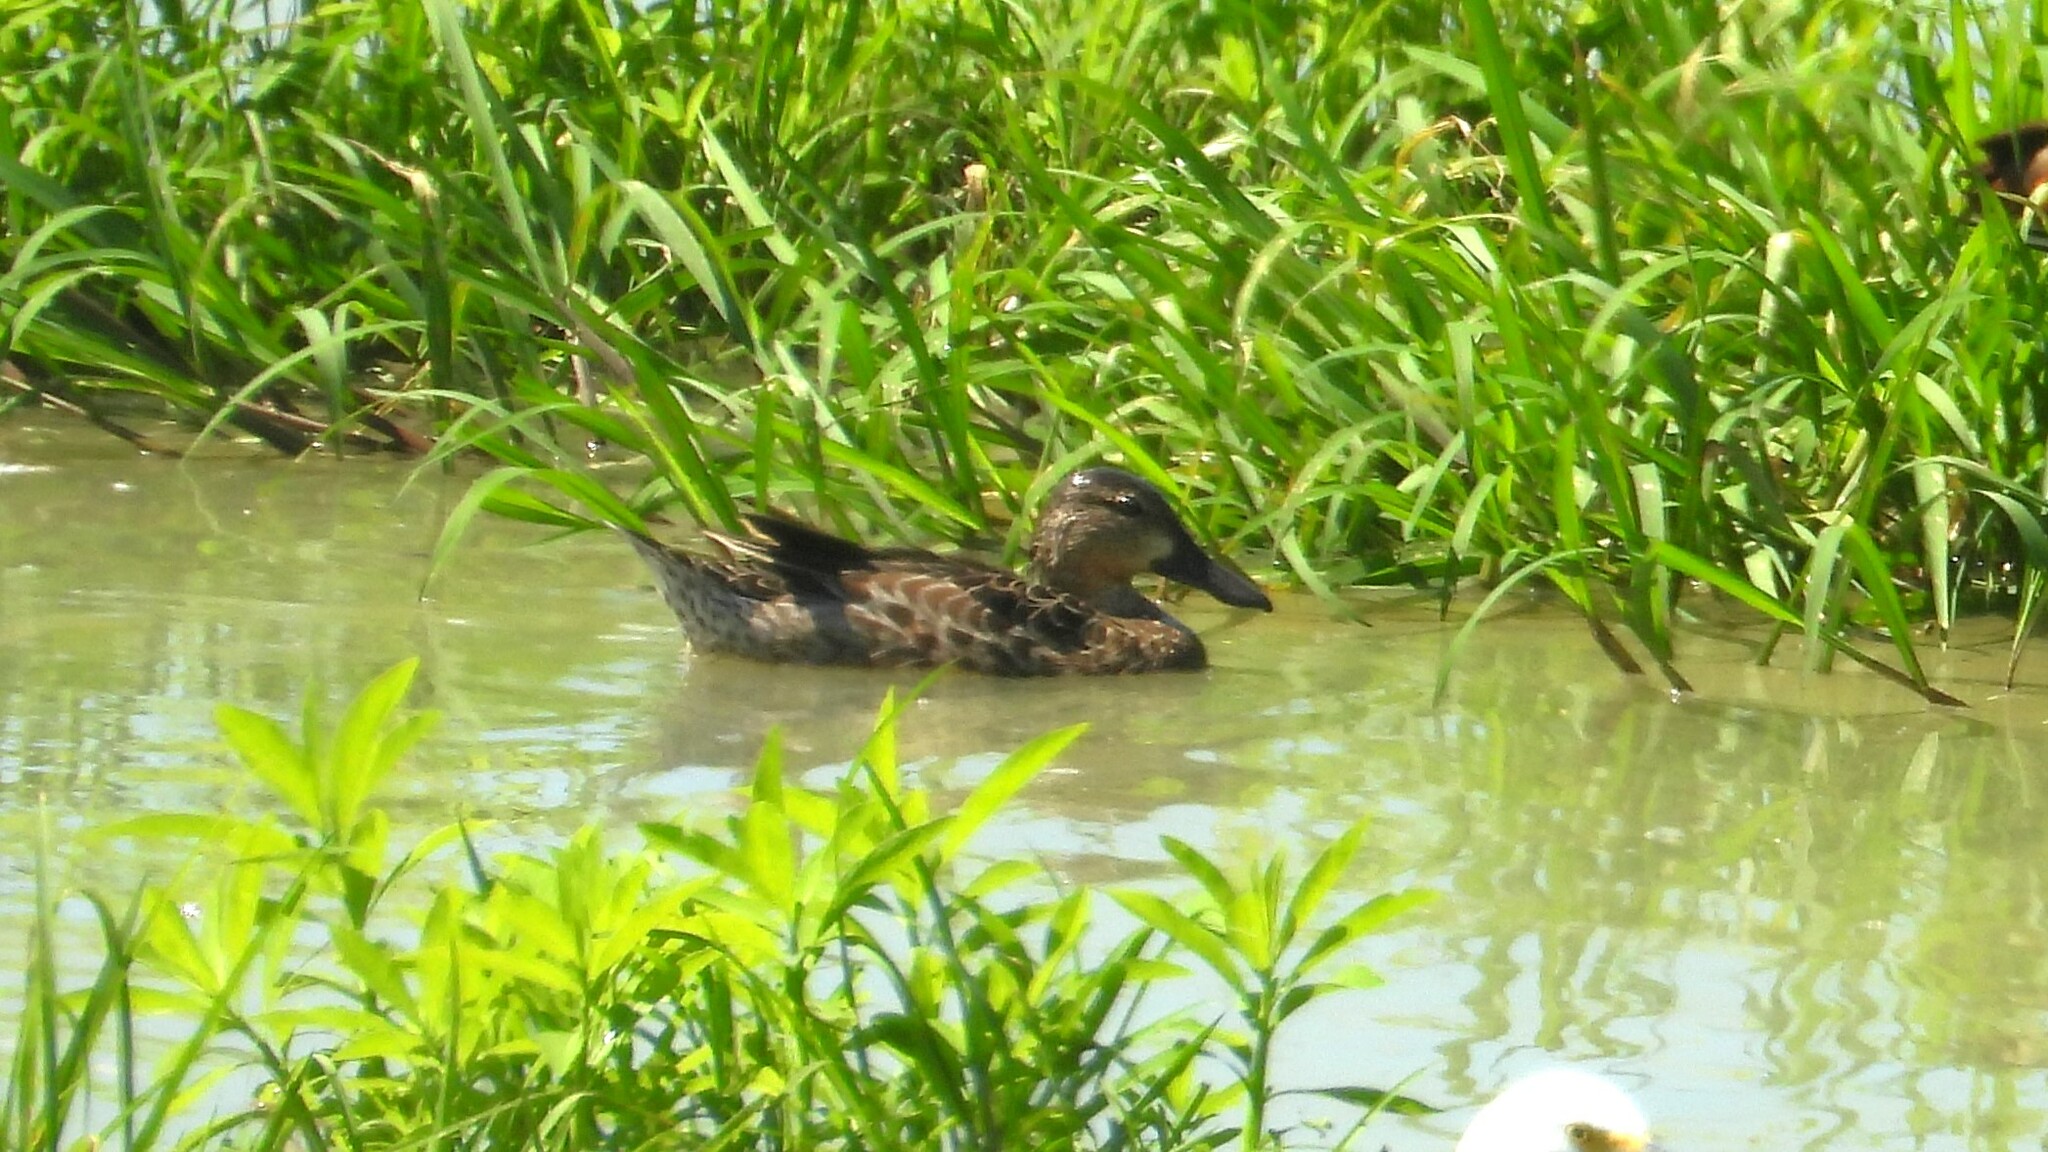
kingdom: Animalia
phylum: Chordata
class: Aves
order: Anseriformes
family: Anatidae
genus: Spatula
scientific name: Spatula discors
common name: Blue-winged teal
